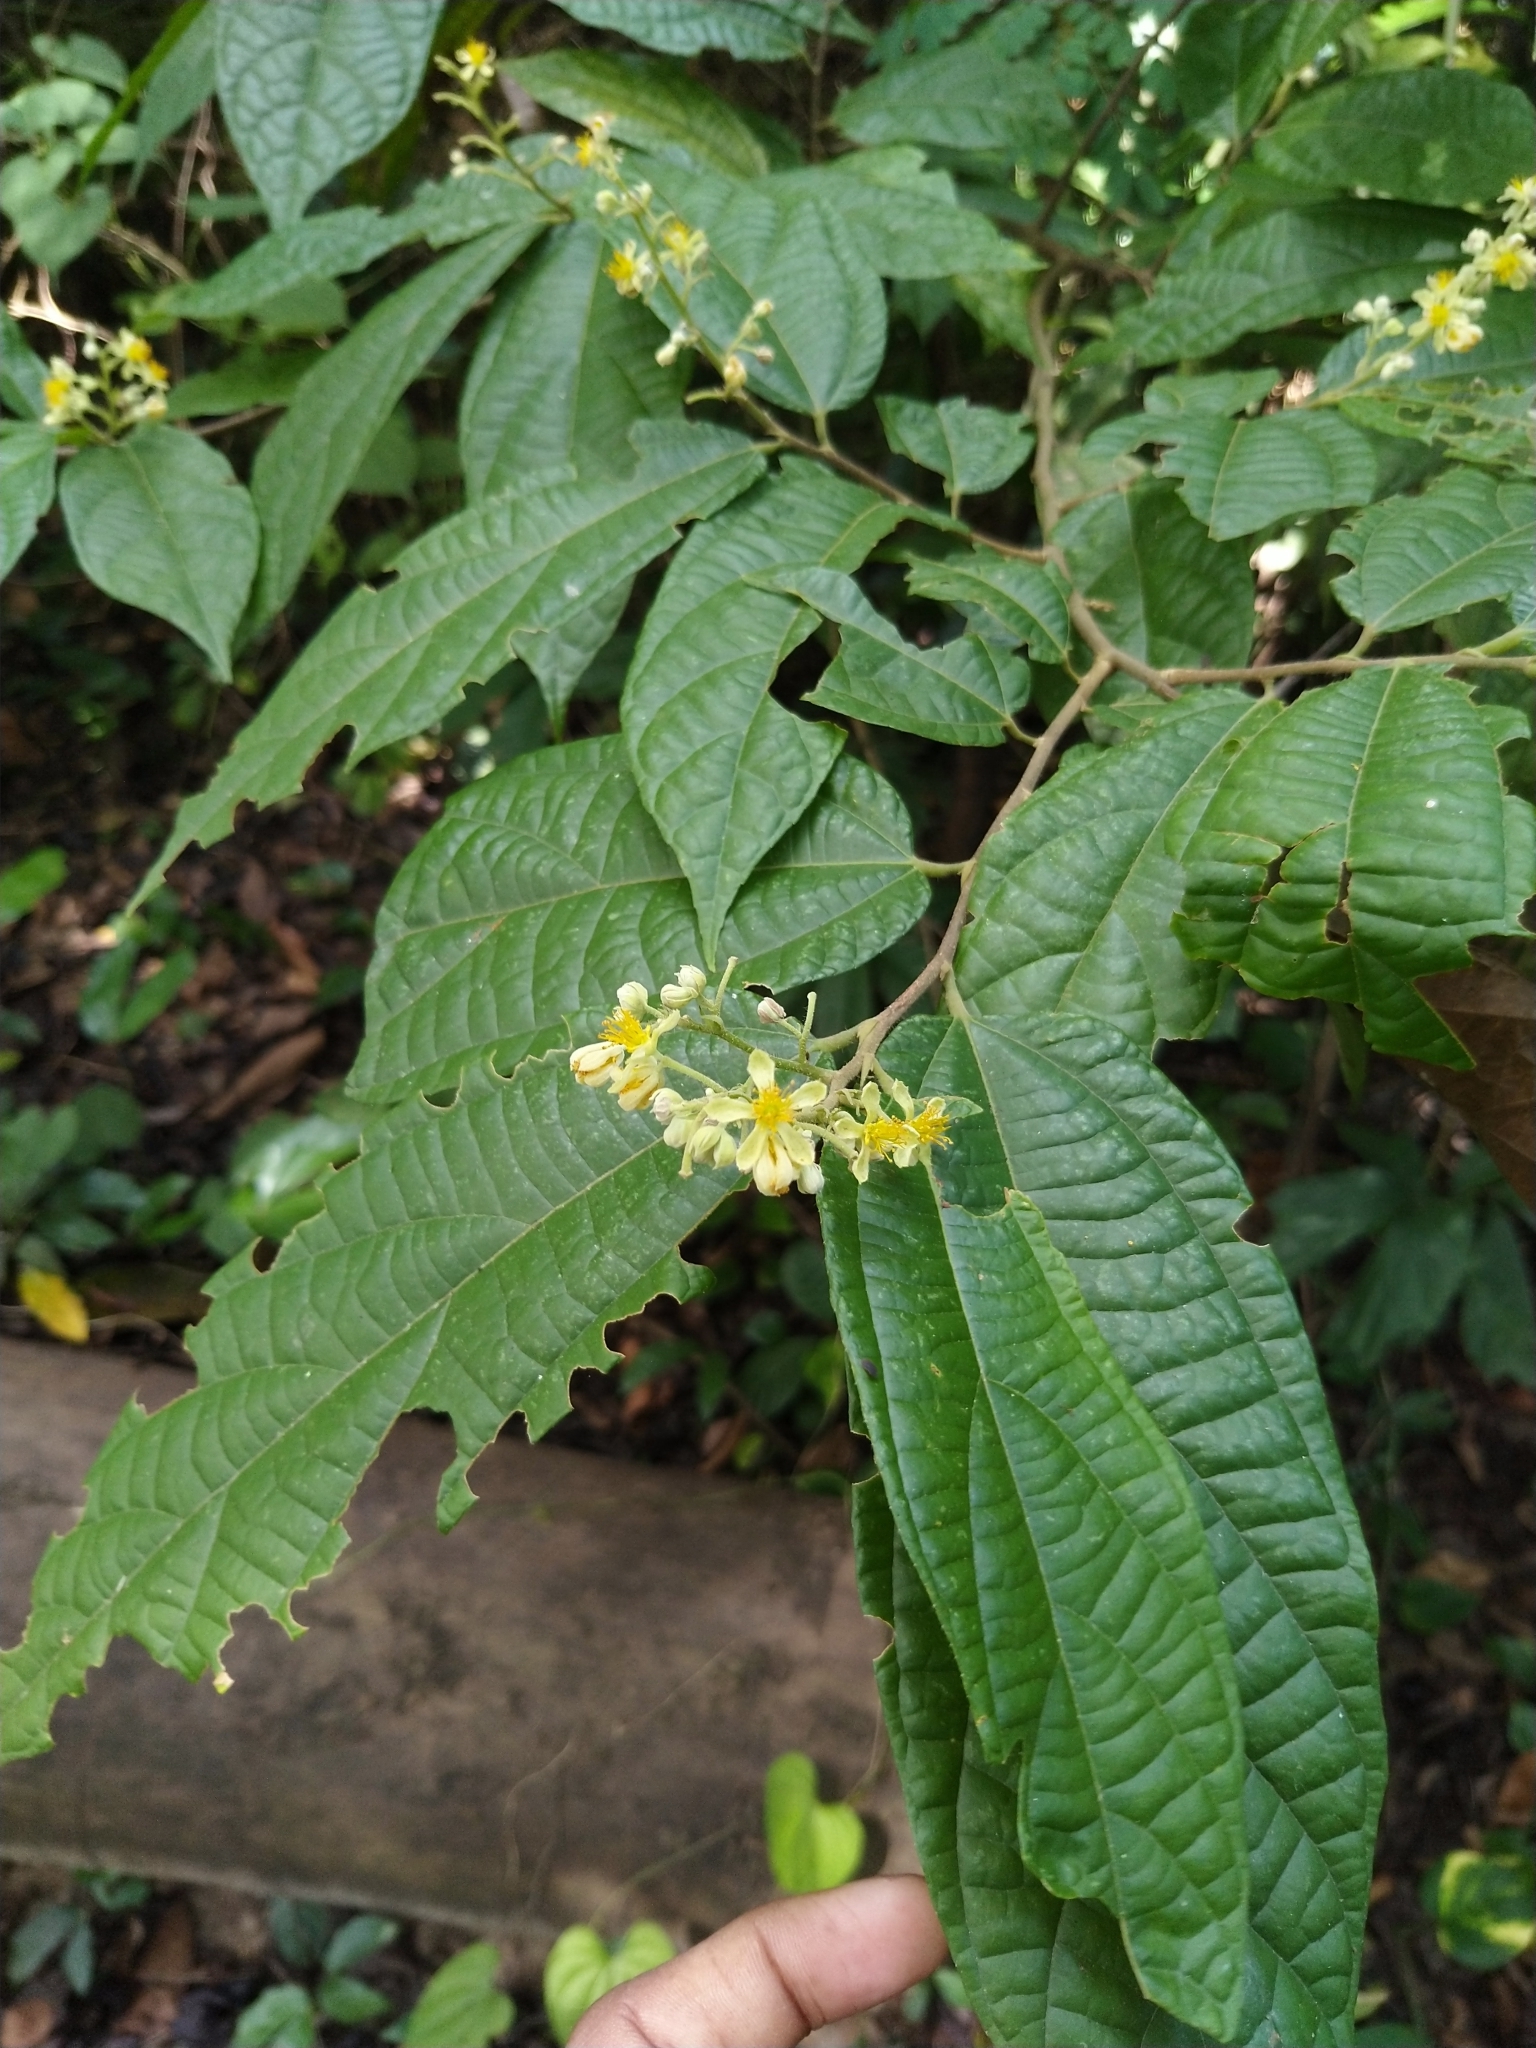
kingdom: Plantae
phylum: Tracheophyta
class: Magnoliopsida
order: Malvales
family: Malvaceae
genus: Microcos
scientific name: Microcos paniculata
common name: Microcos
